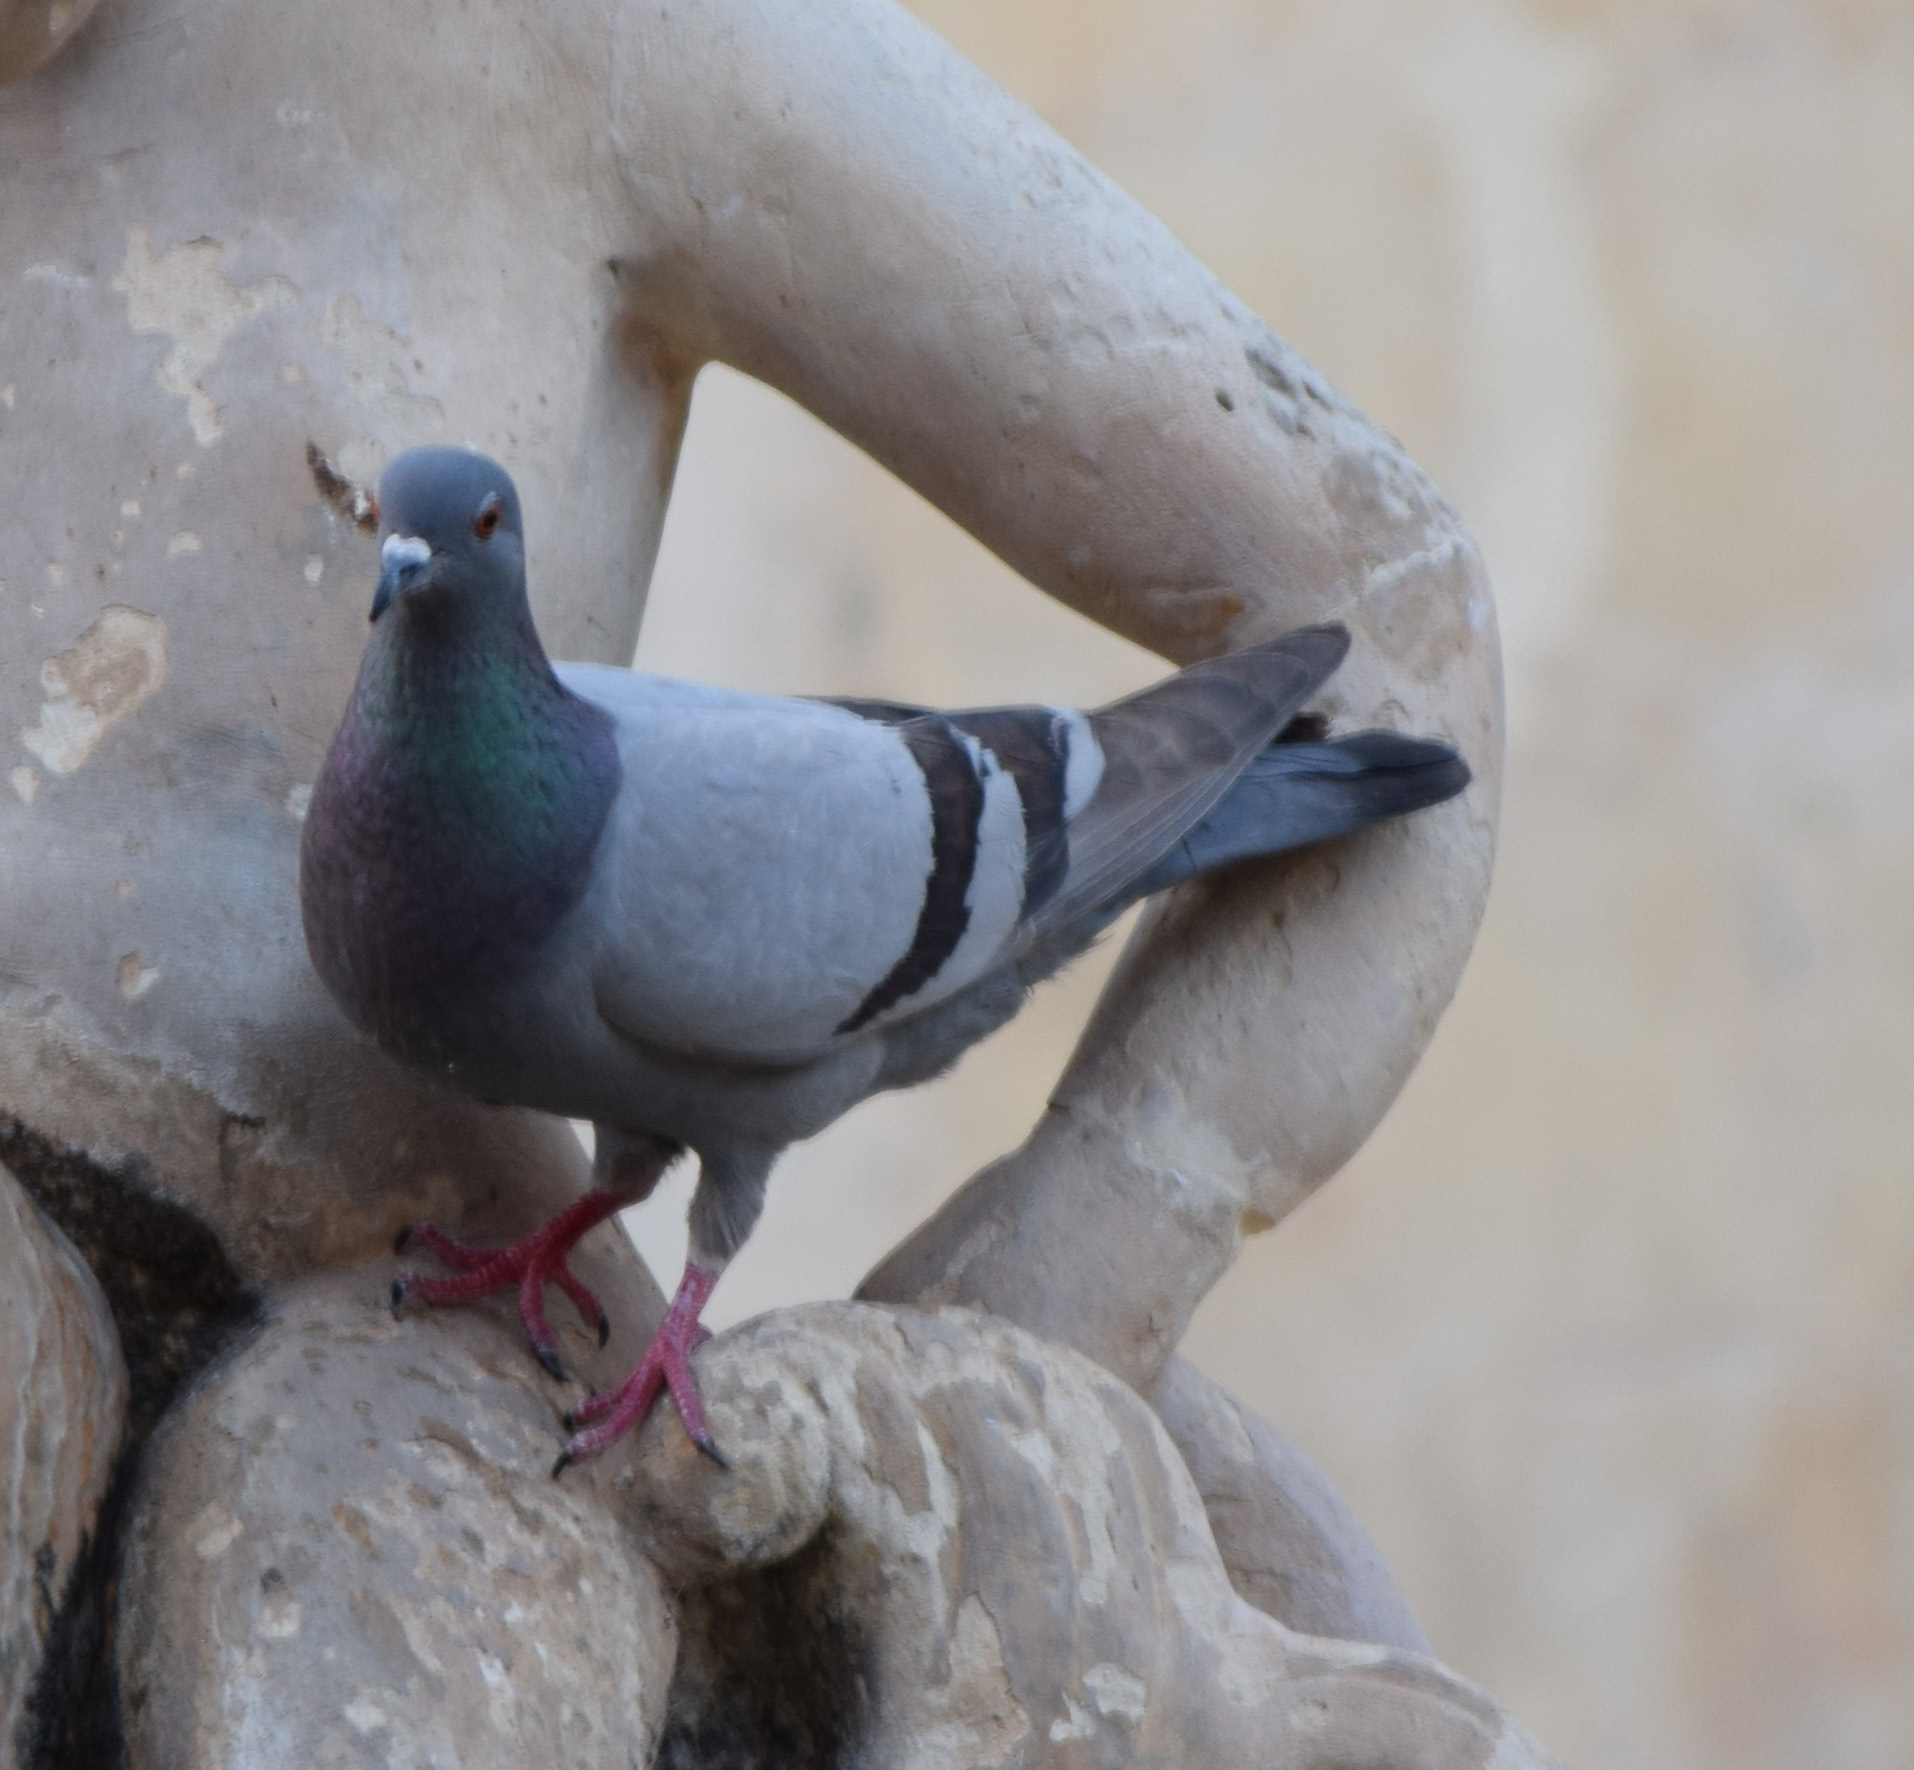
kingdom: Animalia
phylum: Chordata
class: Aves
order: Columbiformes
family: Columbidae
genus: Columba
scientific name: Columba livia
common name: Rock pigeon
